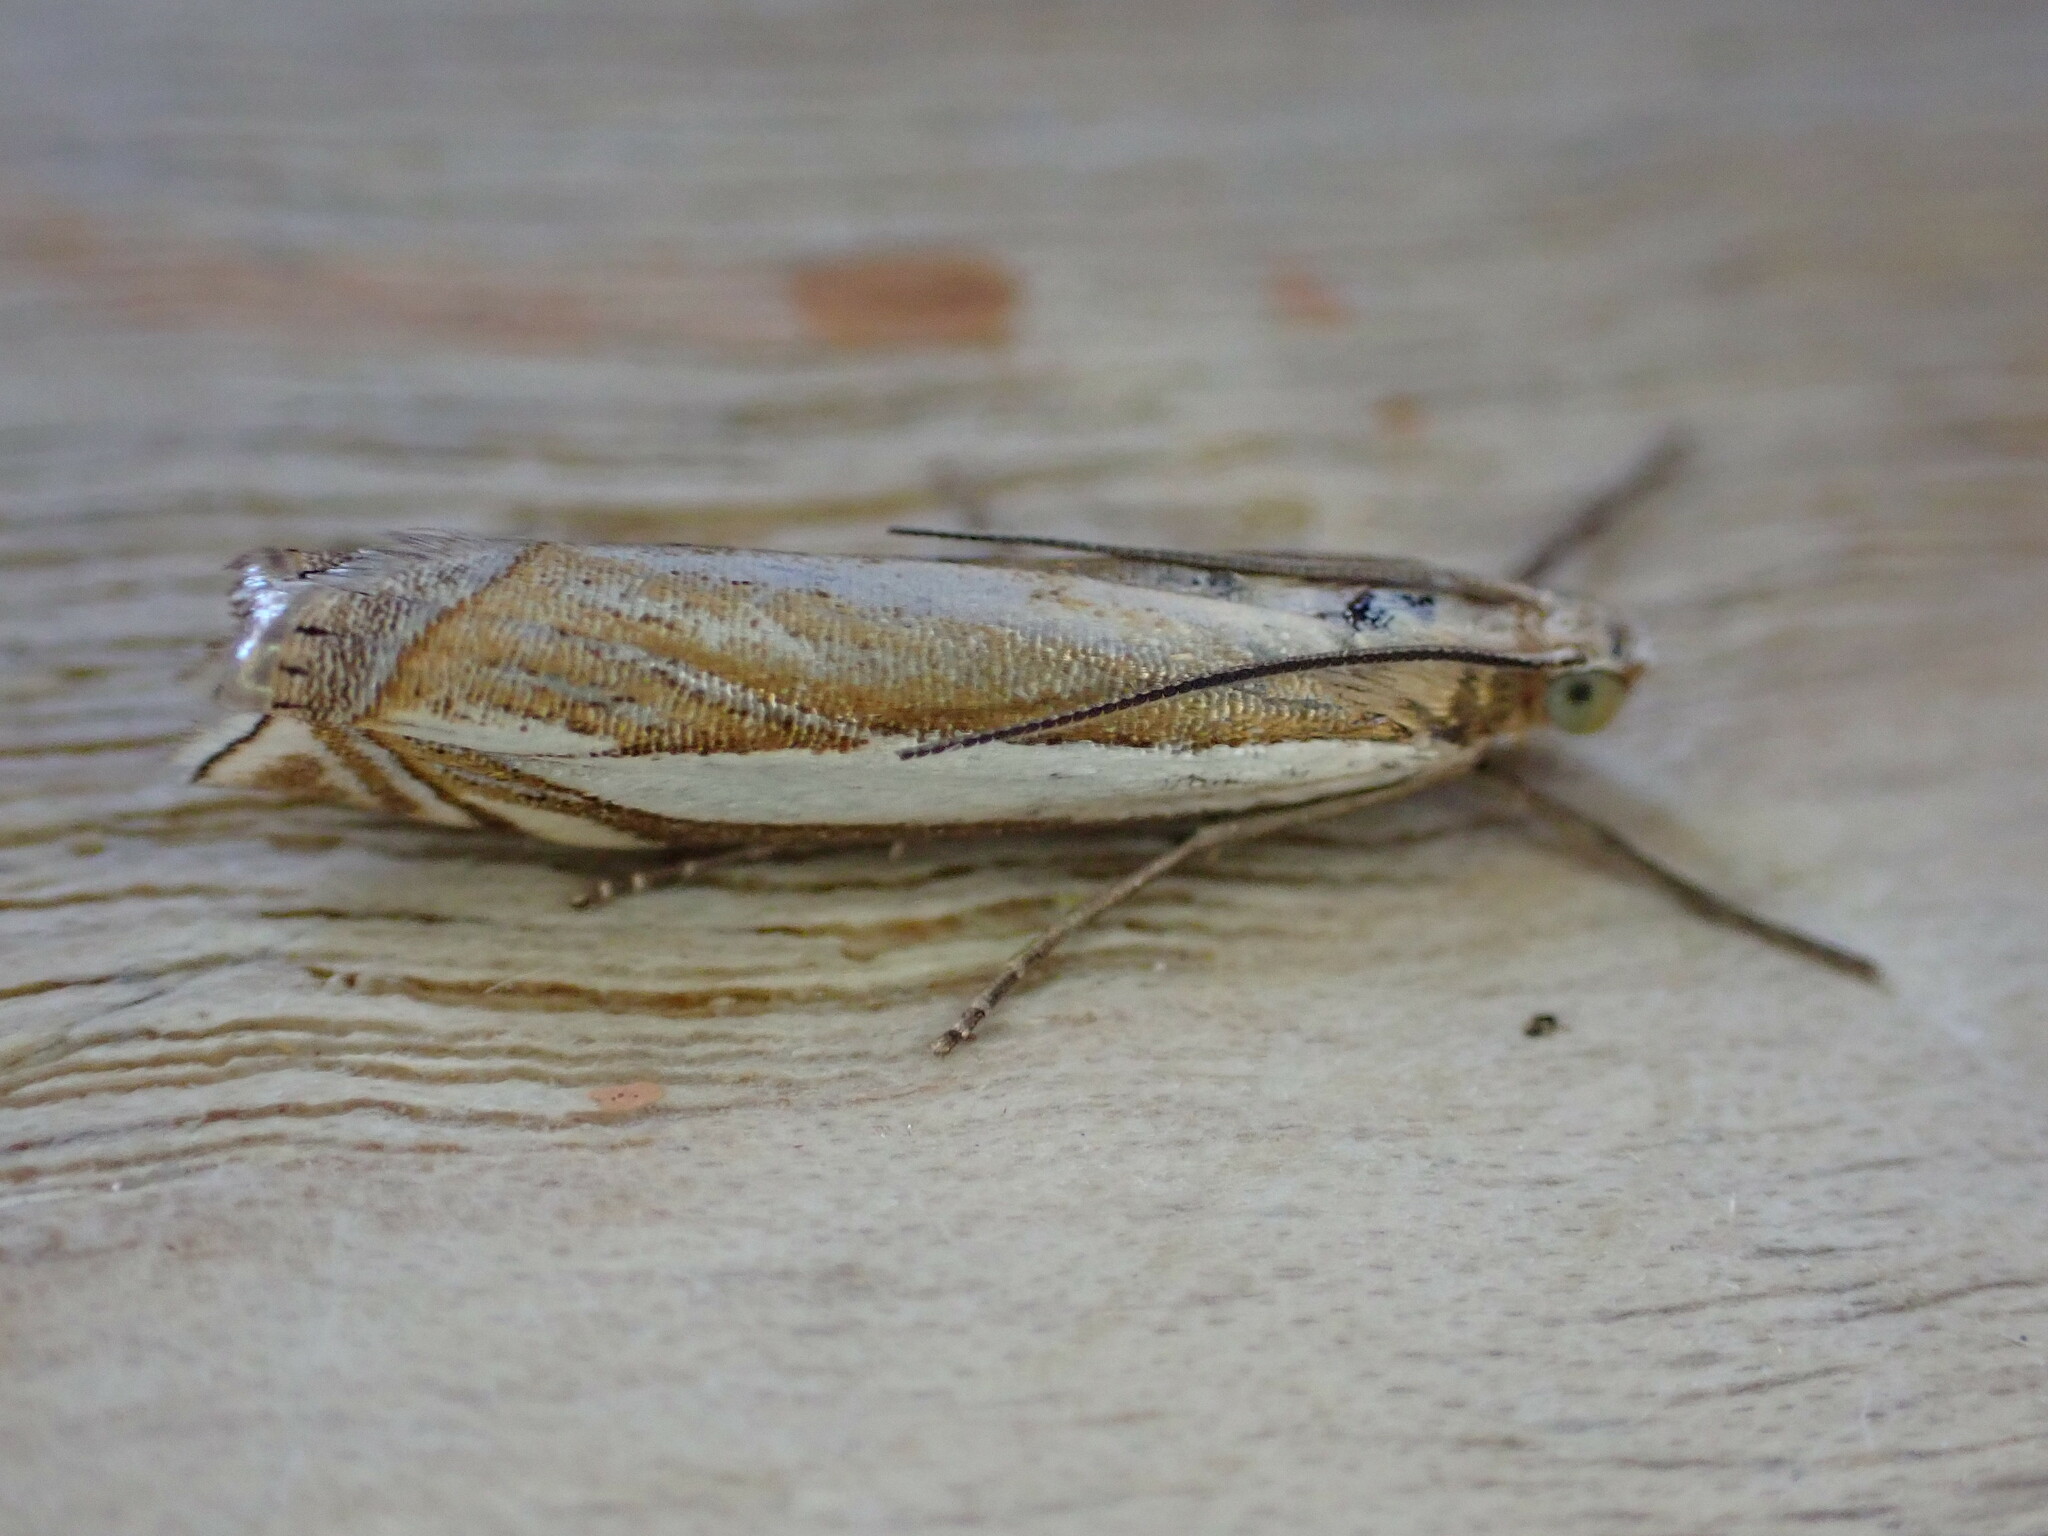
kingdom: Animalia
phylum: Arthropoda
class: Insecta
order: Lepidoptera
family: Crambidae
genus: Crambus
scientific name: Crambus pascuella
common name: Inlaid grass-veneer
